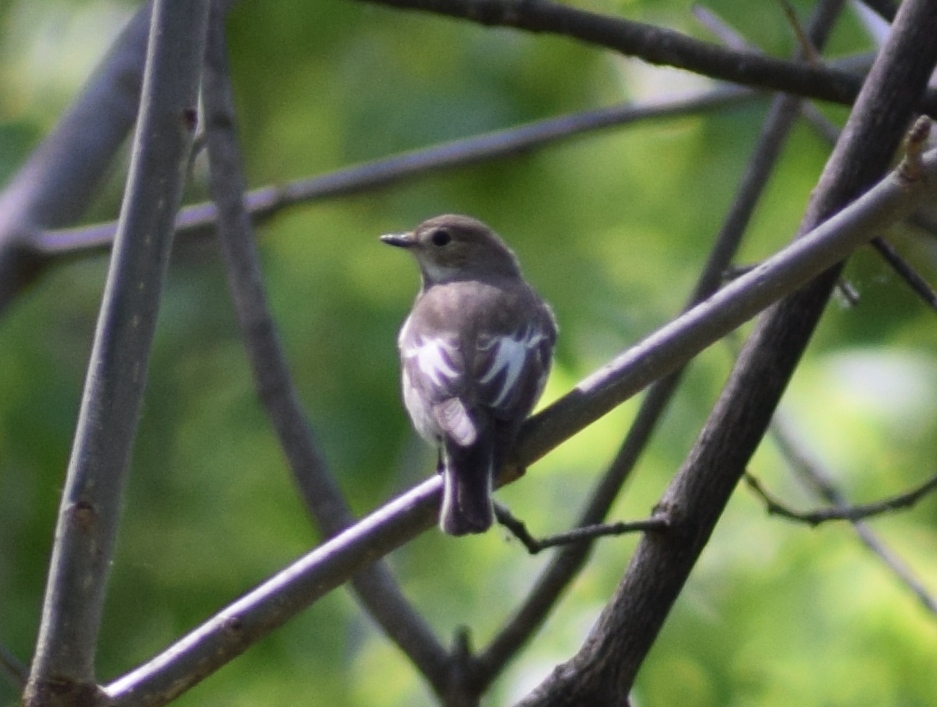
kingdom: Animalia
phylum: Chordata
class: Aves
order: Passeriformes
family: Muscicapidae
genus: Ficedula
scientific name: Ficedula hypoleuca
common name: European pied flycatcher
